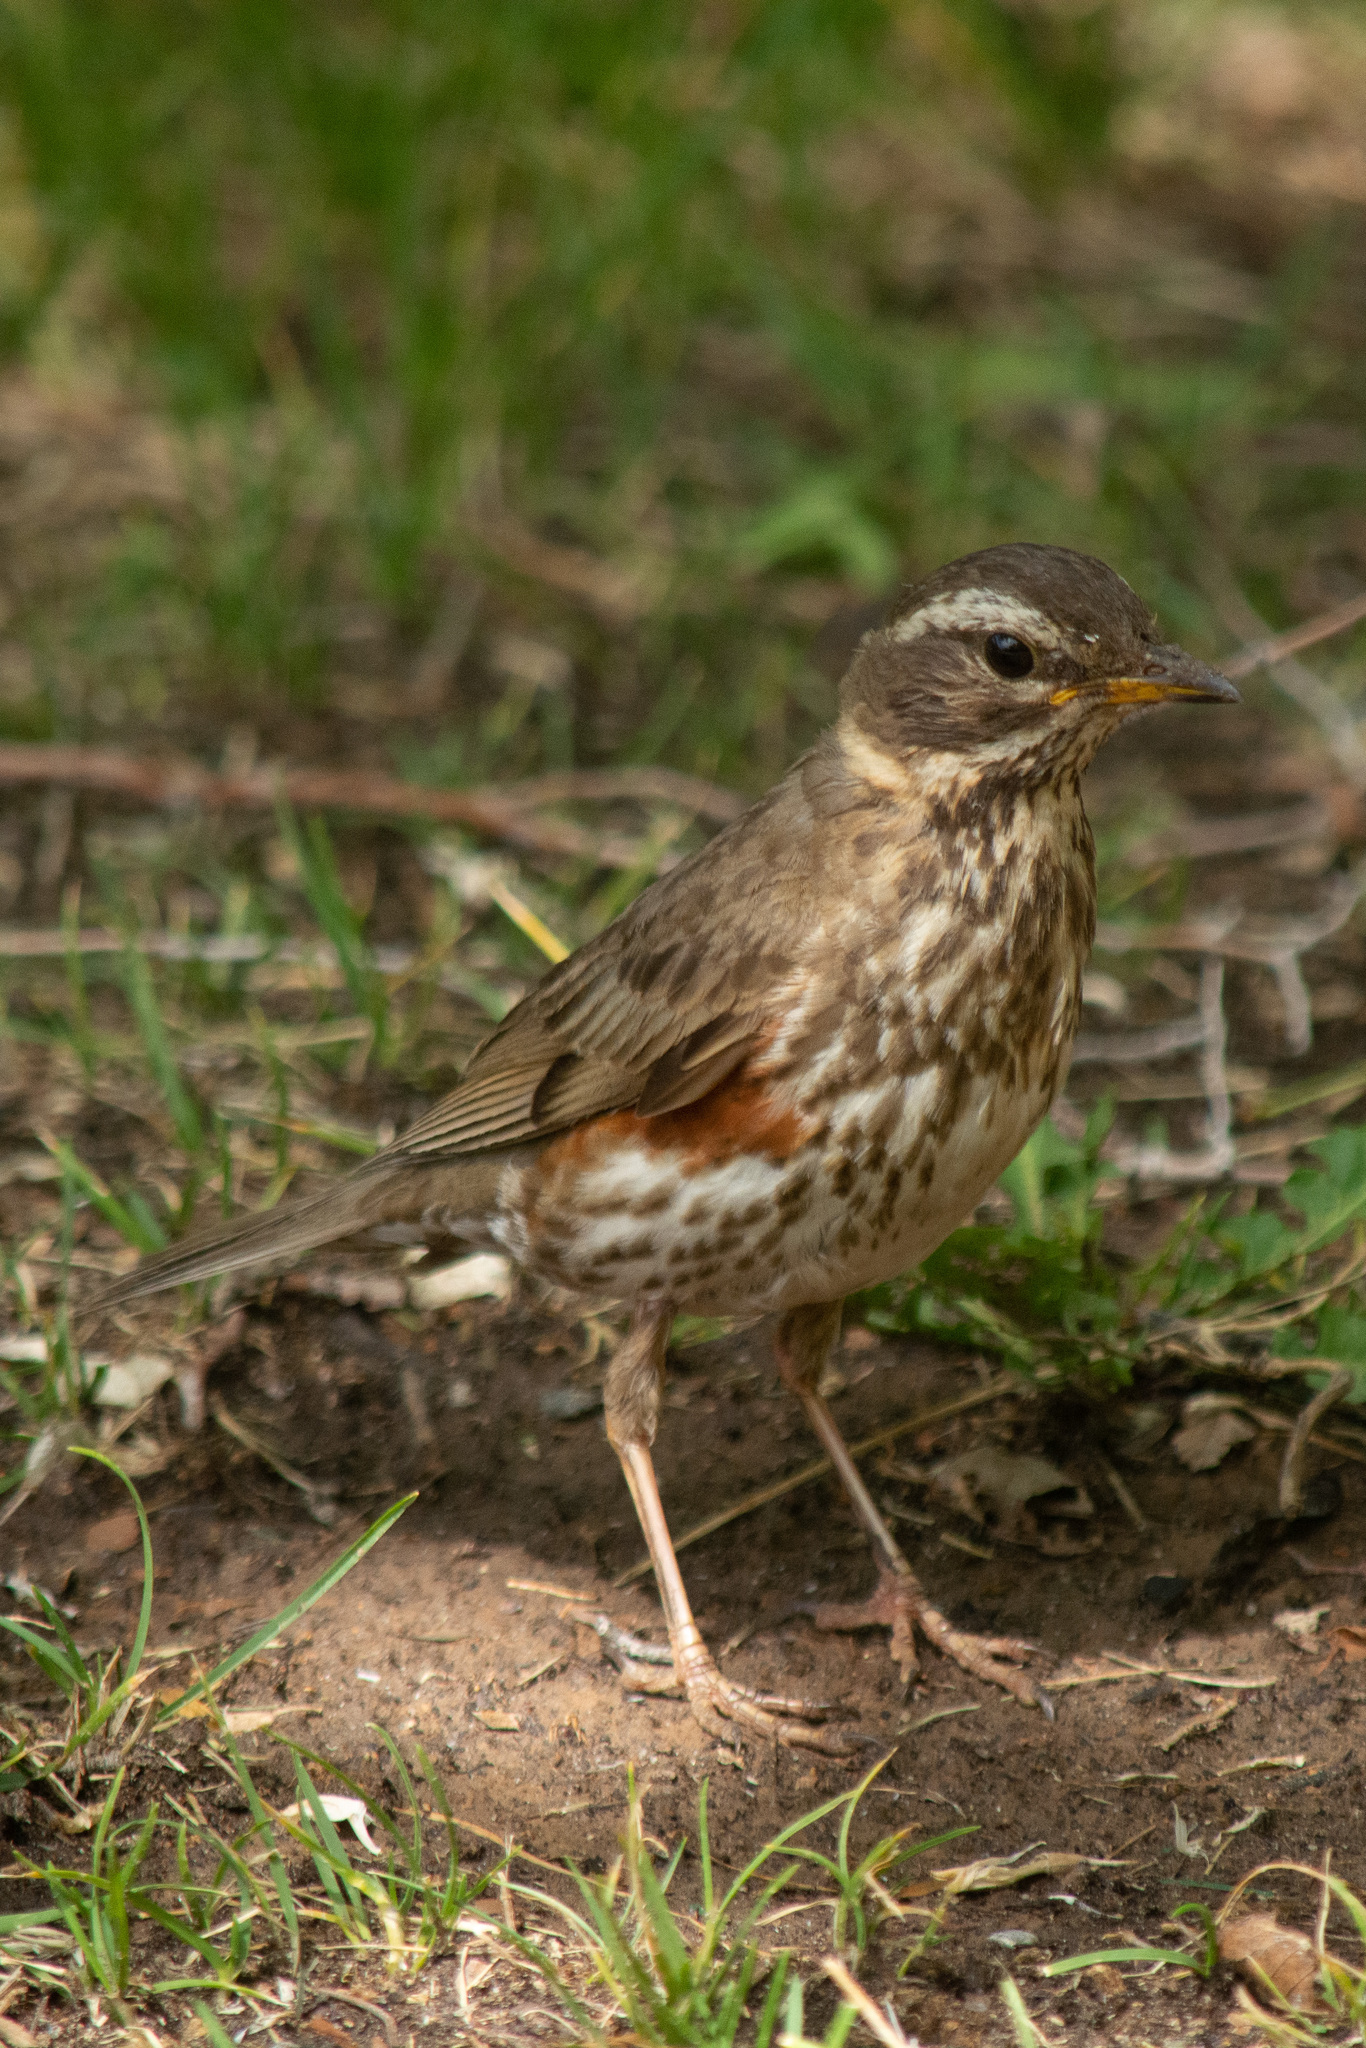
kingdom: Animalia
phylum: Chordata
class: Aves
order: Passeriformes
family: Turdidae
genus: Turdus
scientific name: Turdus iliacus
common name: Redwing
